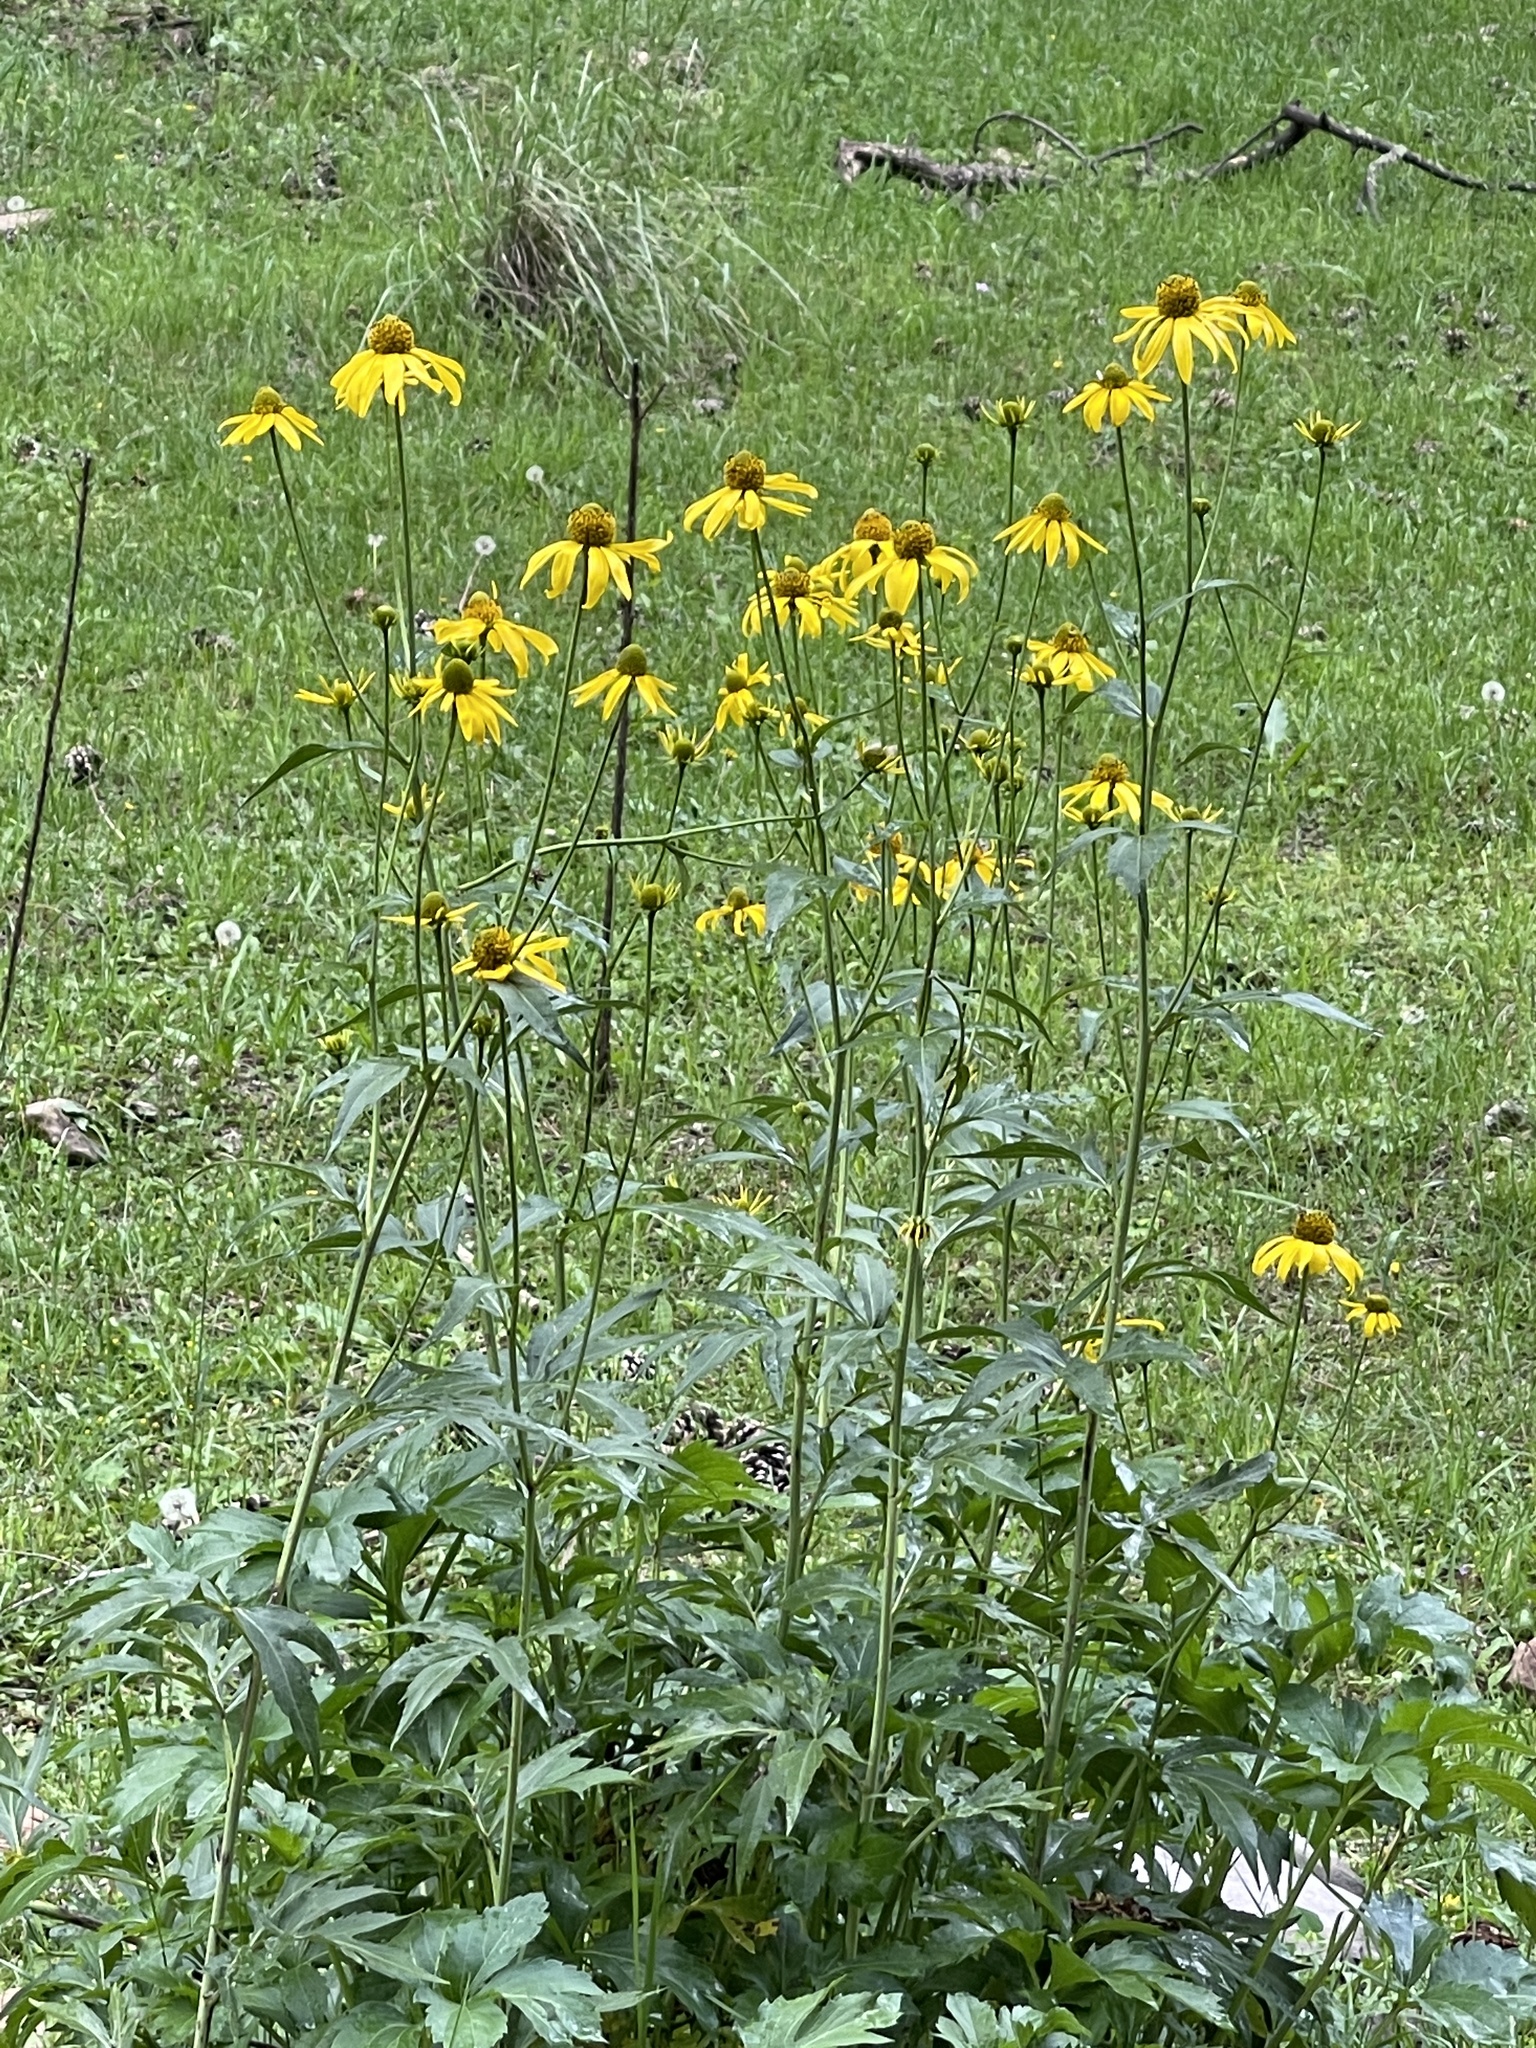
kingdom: Plantae
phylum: Tracheophyta
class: Magnoliopsida
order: Asterales
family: Asteraceae
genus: Rudbeckia
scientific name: Rudbeckia laciniata
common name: Coneflower
